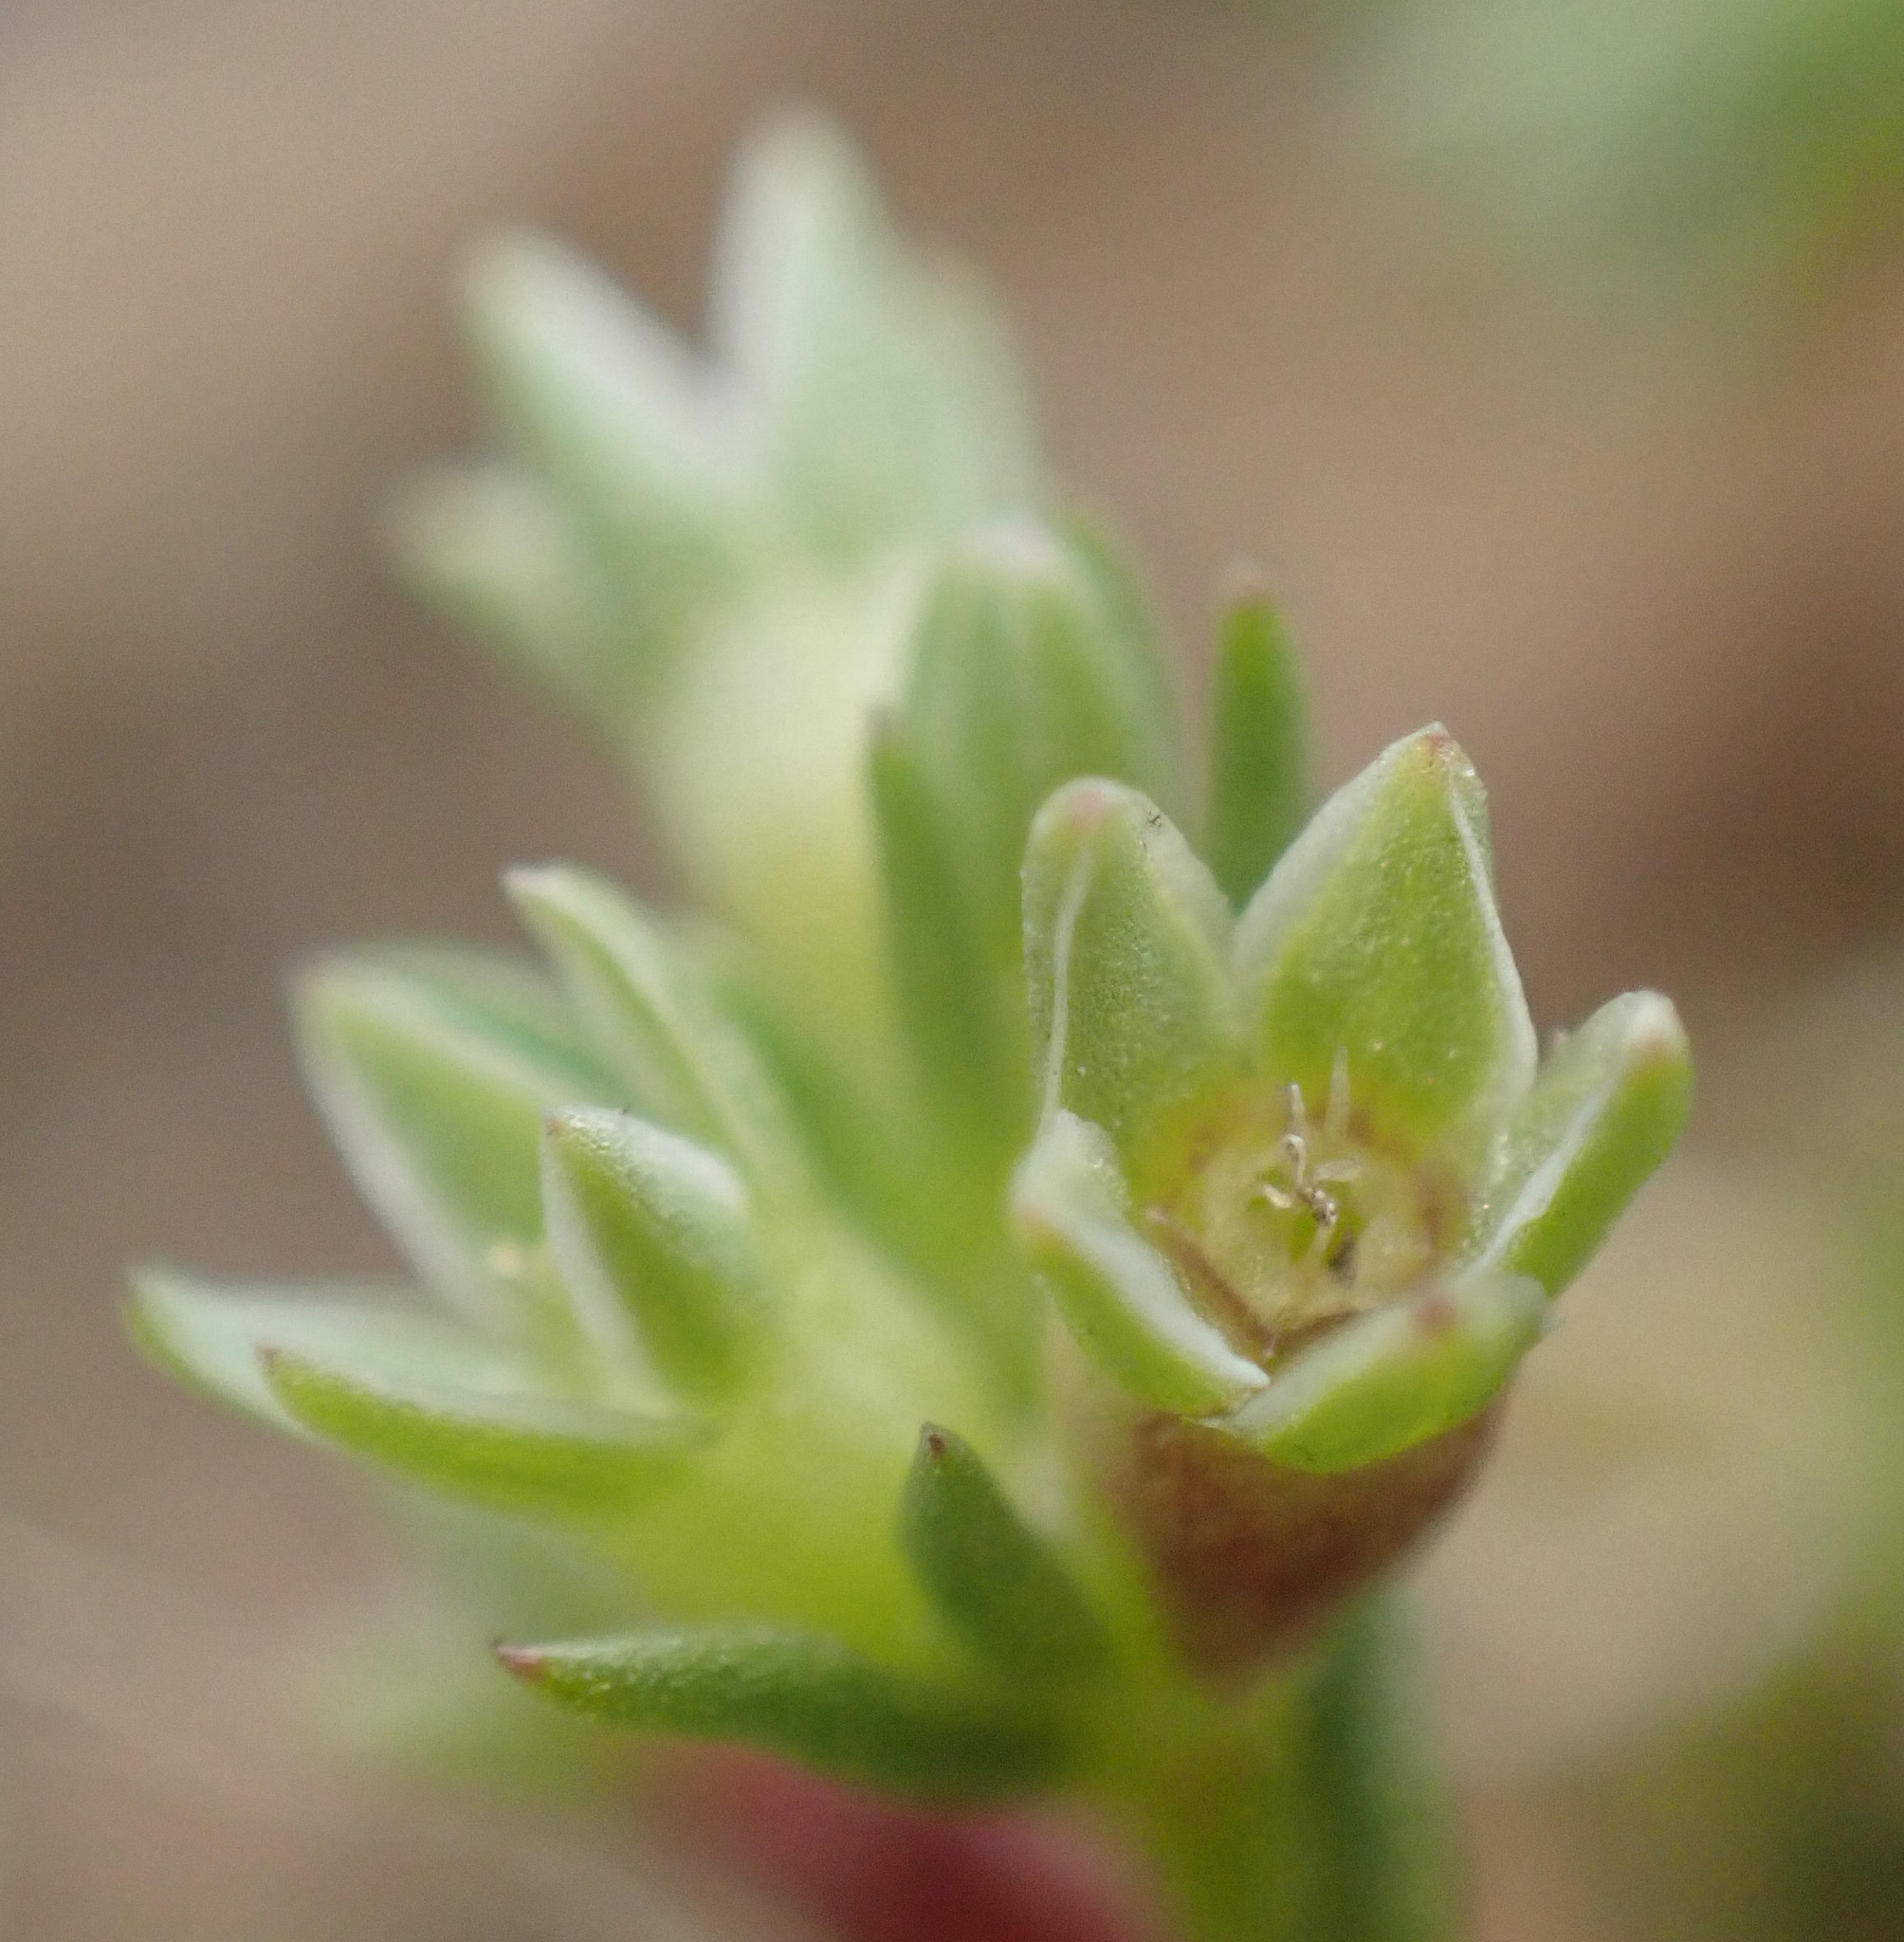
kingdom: Plantae
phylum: Tracheophyta
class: Magnoliopsida
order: Caryophyllales
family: Caryophyllaceae
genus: Scleranthus
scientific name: Scleranthus annuus
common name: Annual knawel
